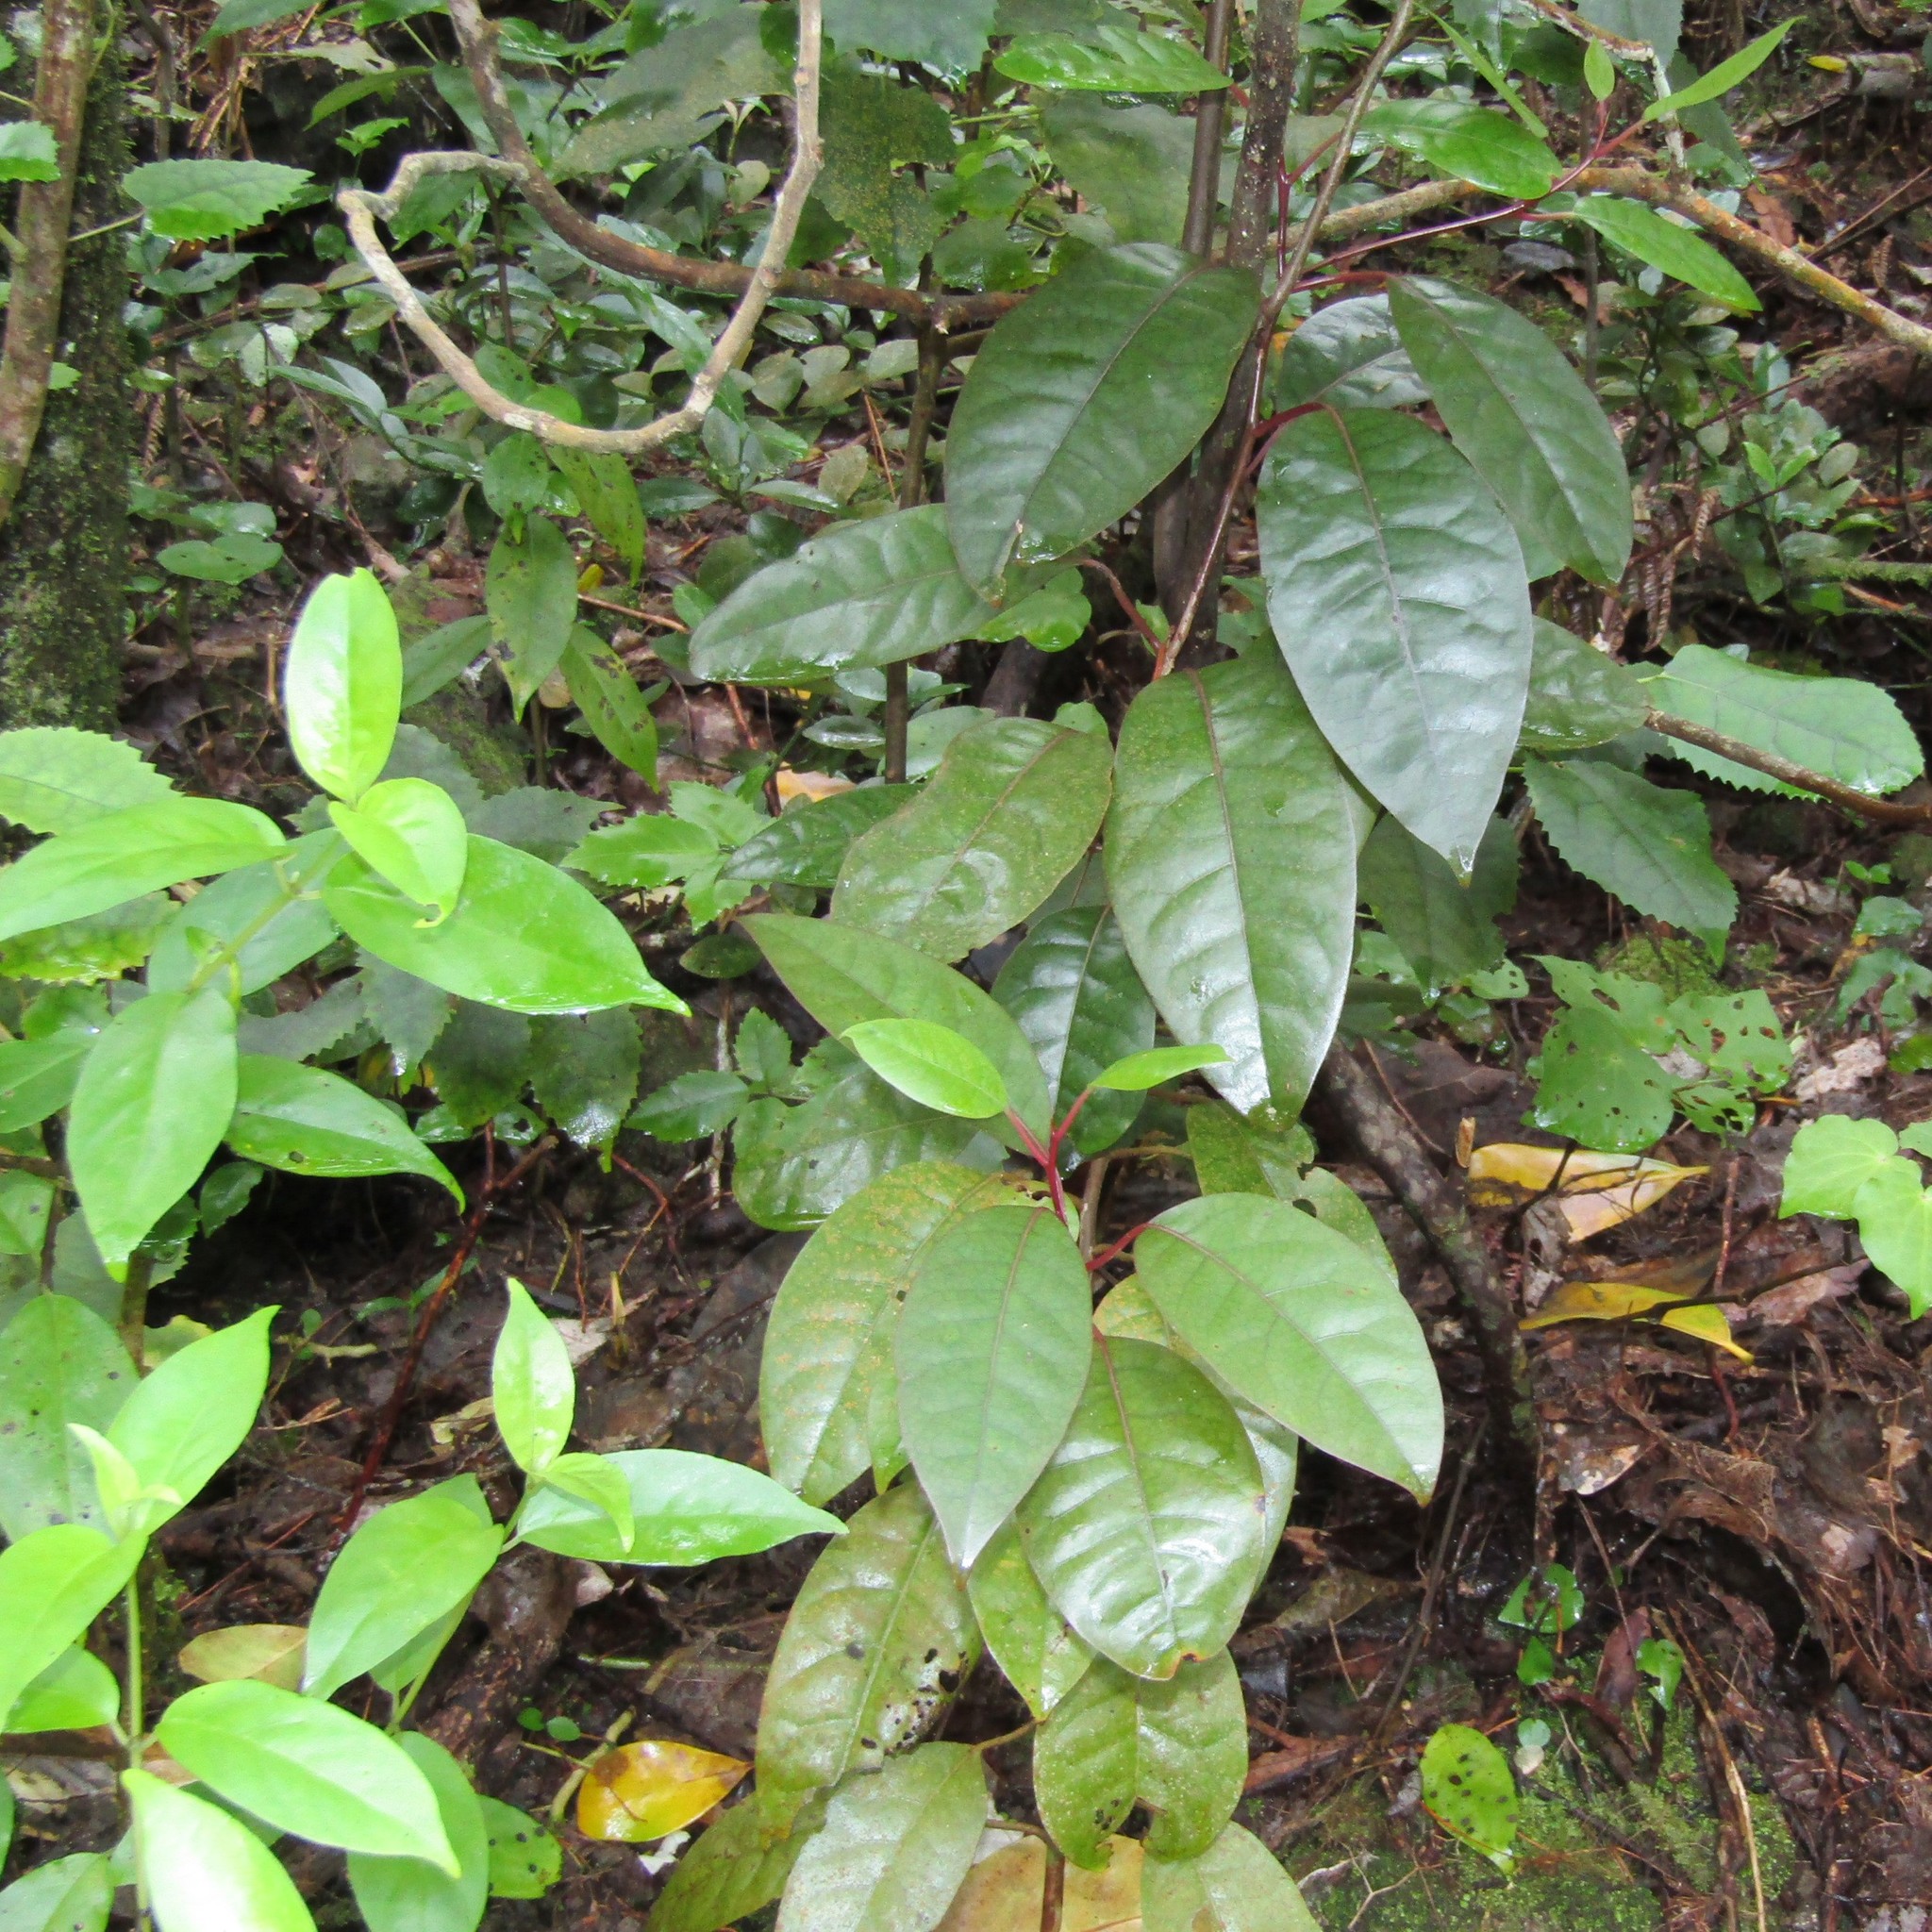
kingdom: Plantae
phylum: Tracheophyta
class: Magnoliopsida
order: Laurales
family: Lauraceae
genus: Litsea
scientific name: Litsea calicaris
